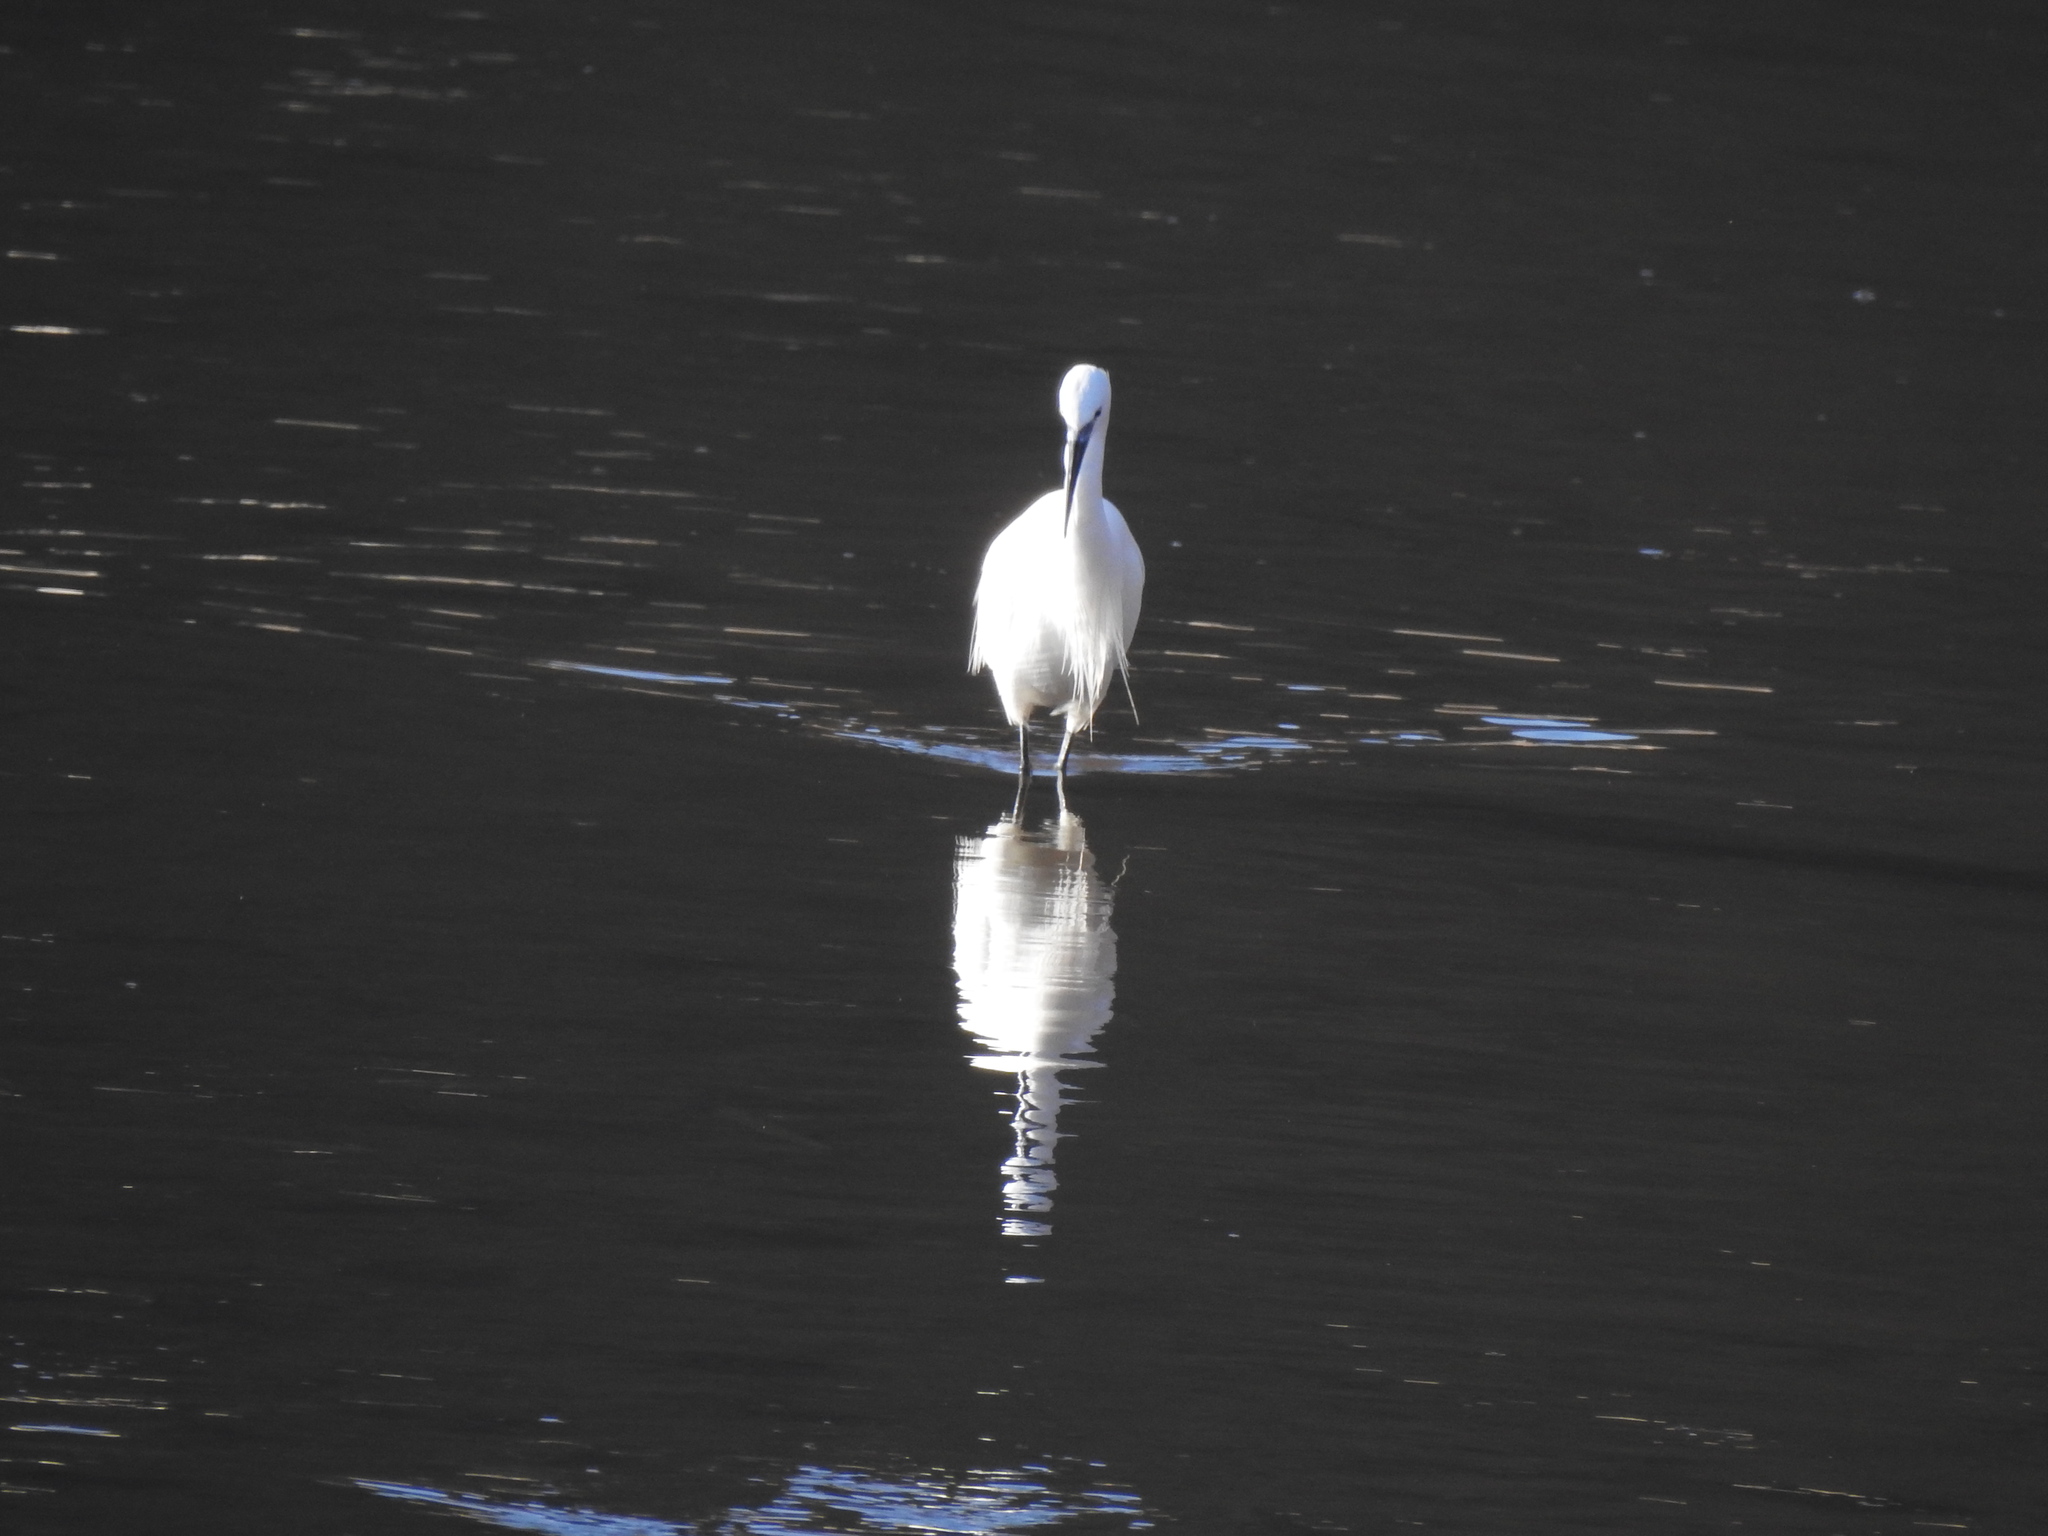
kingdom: Animalia
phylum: Chordata
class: Aves
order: Pelecaniformes
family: Ardeidae
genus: Egretta
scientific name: Egretta garzetta
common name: Little egret
